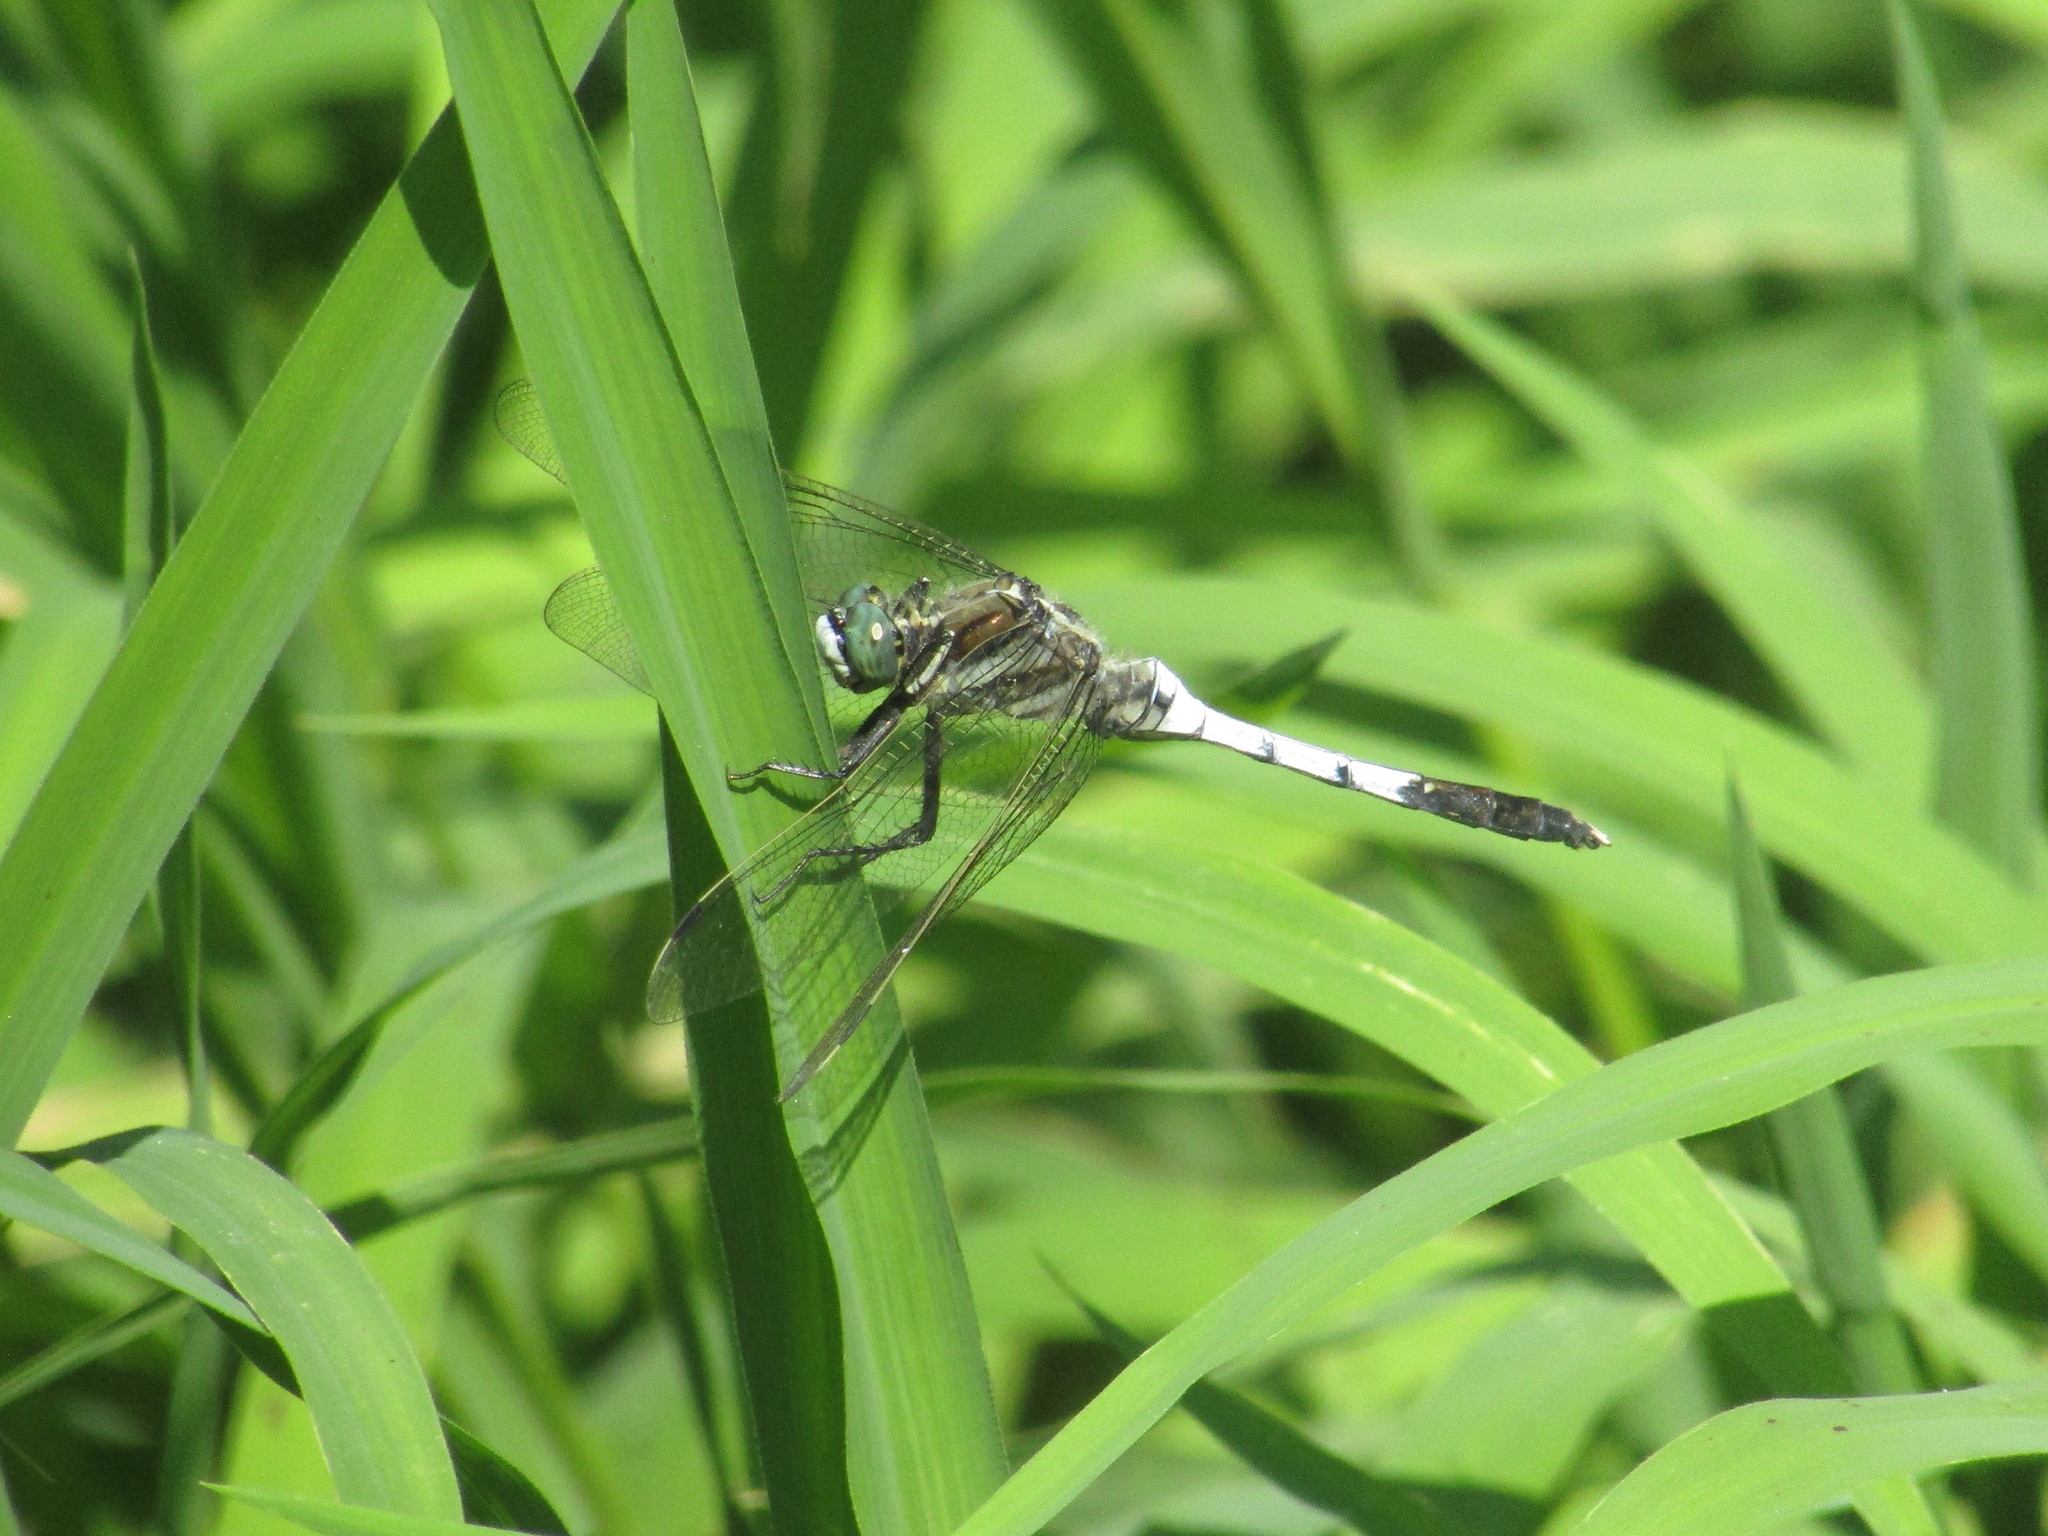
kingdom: Animalia
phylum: Arthropoda
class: Insecta
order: Odonata
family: Libellulidae
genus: Orthetrum
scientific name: Orthetrum albistylum
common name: White-tailed skimmer
